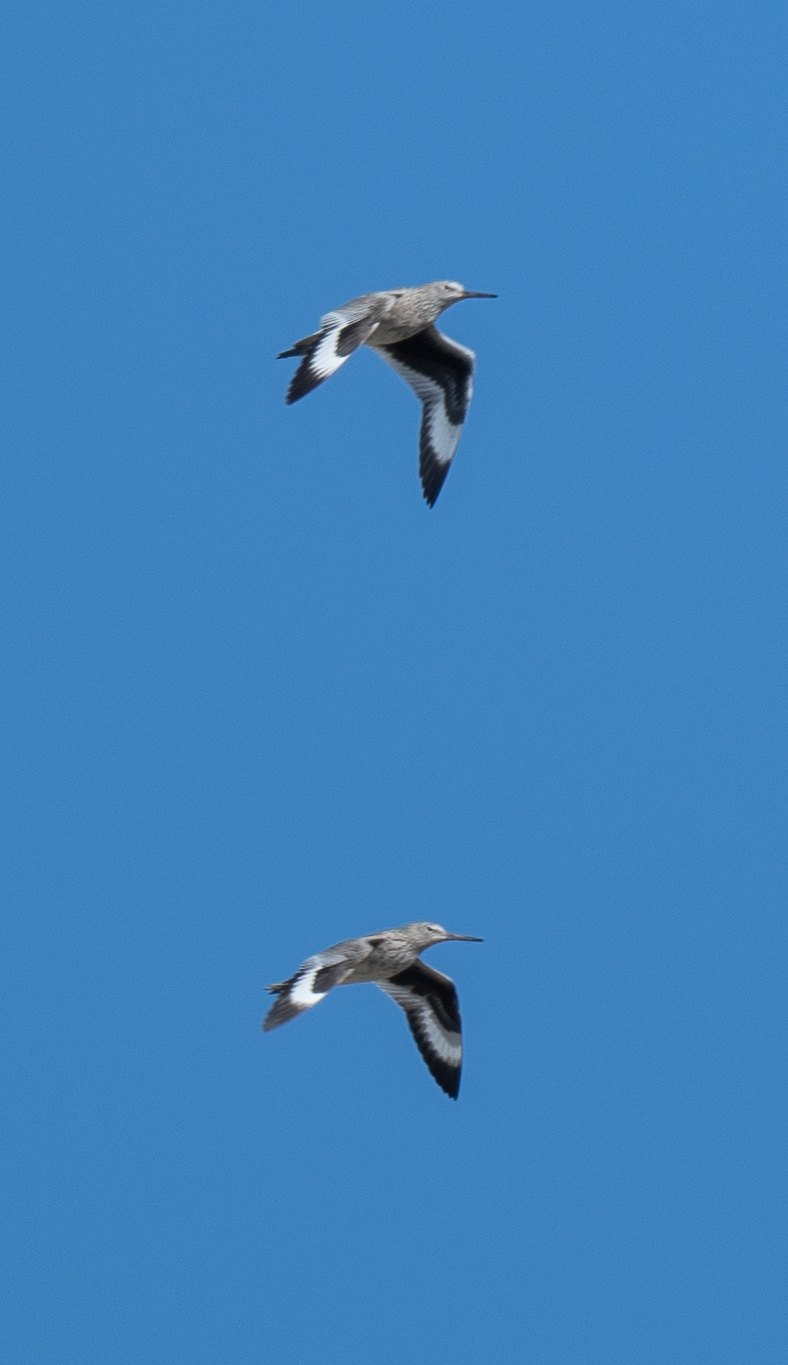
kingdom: Animalia
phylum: Chordata
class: Aves
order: Charadriiformes
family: Scolopacidae
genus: Tringa
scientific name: Tringa semipalmata
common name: Willet
